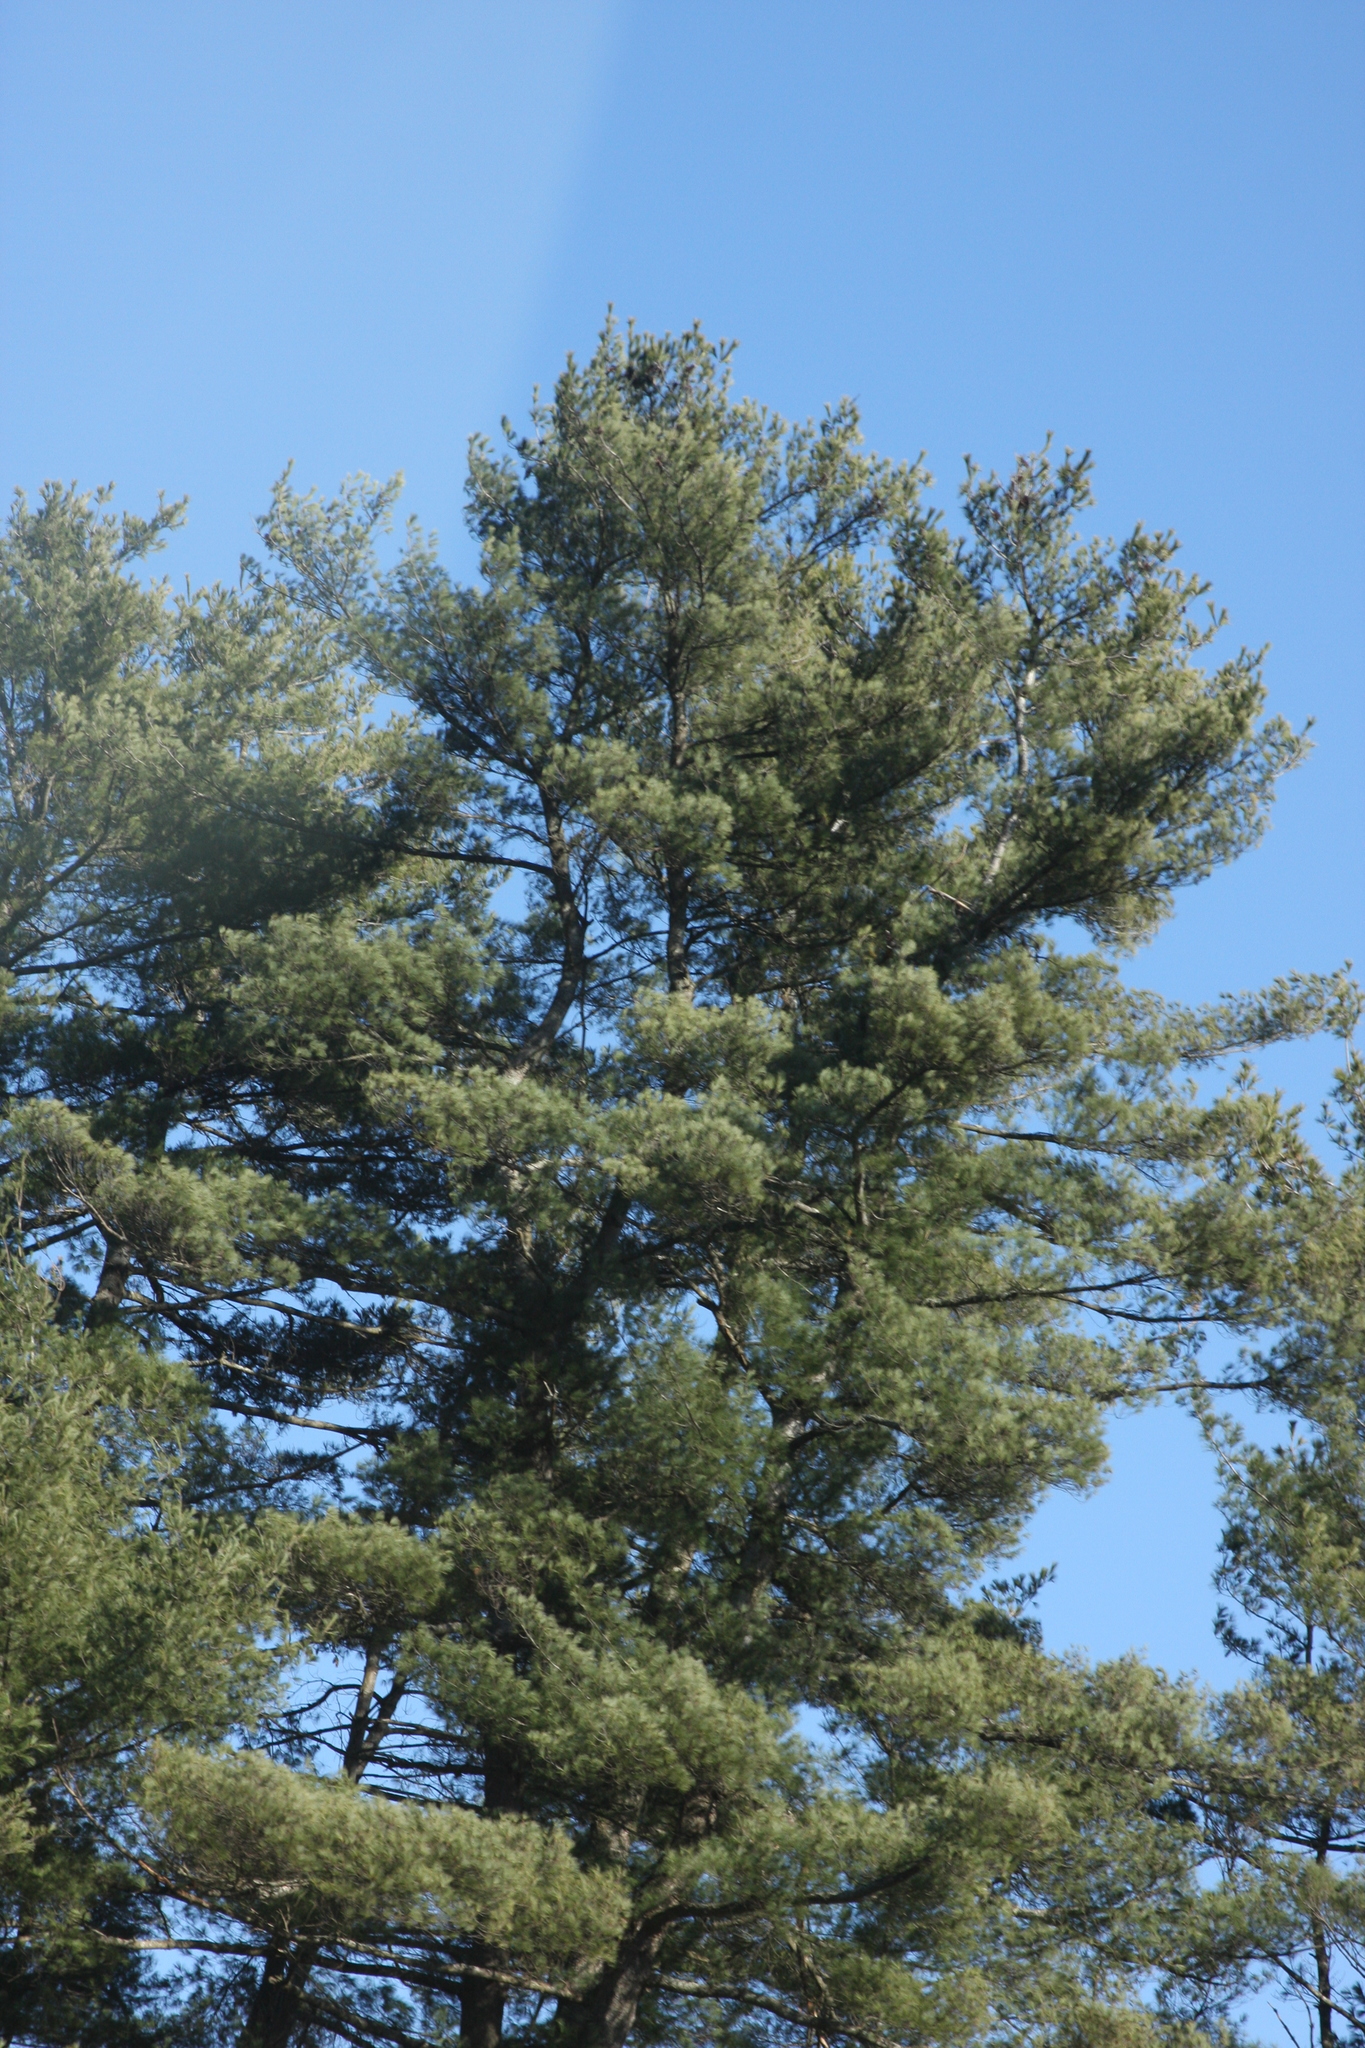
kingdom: Plantae
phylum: Tracheophyta
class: Pinopsida
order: Pinales
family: Pinaceae
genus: Pinus
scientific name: Pinus strobus
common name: Weymouth pine
